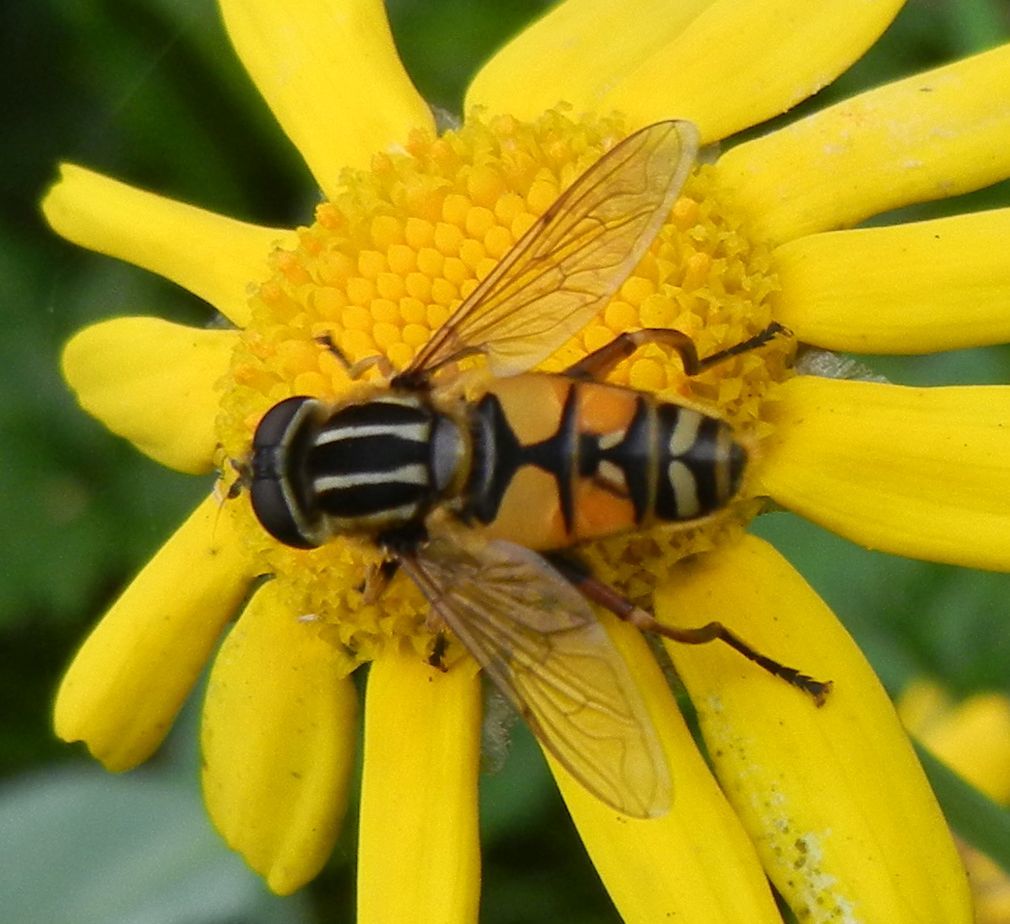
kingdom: Animalia
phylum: Arthropoda
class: Insecta
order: Diptera
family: Syrphidae
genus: Helophilus
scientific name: Helophilus pendulus
